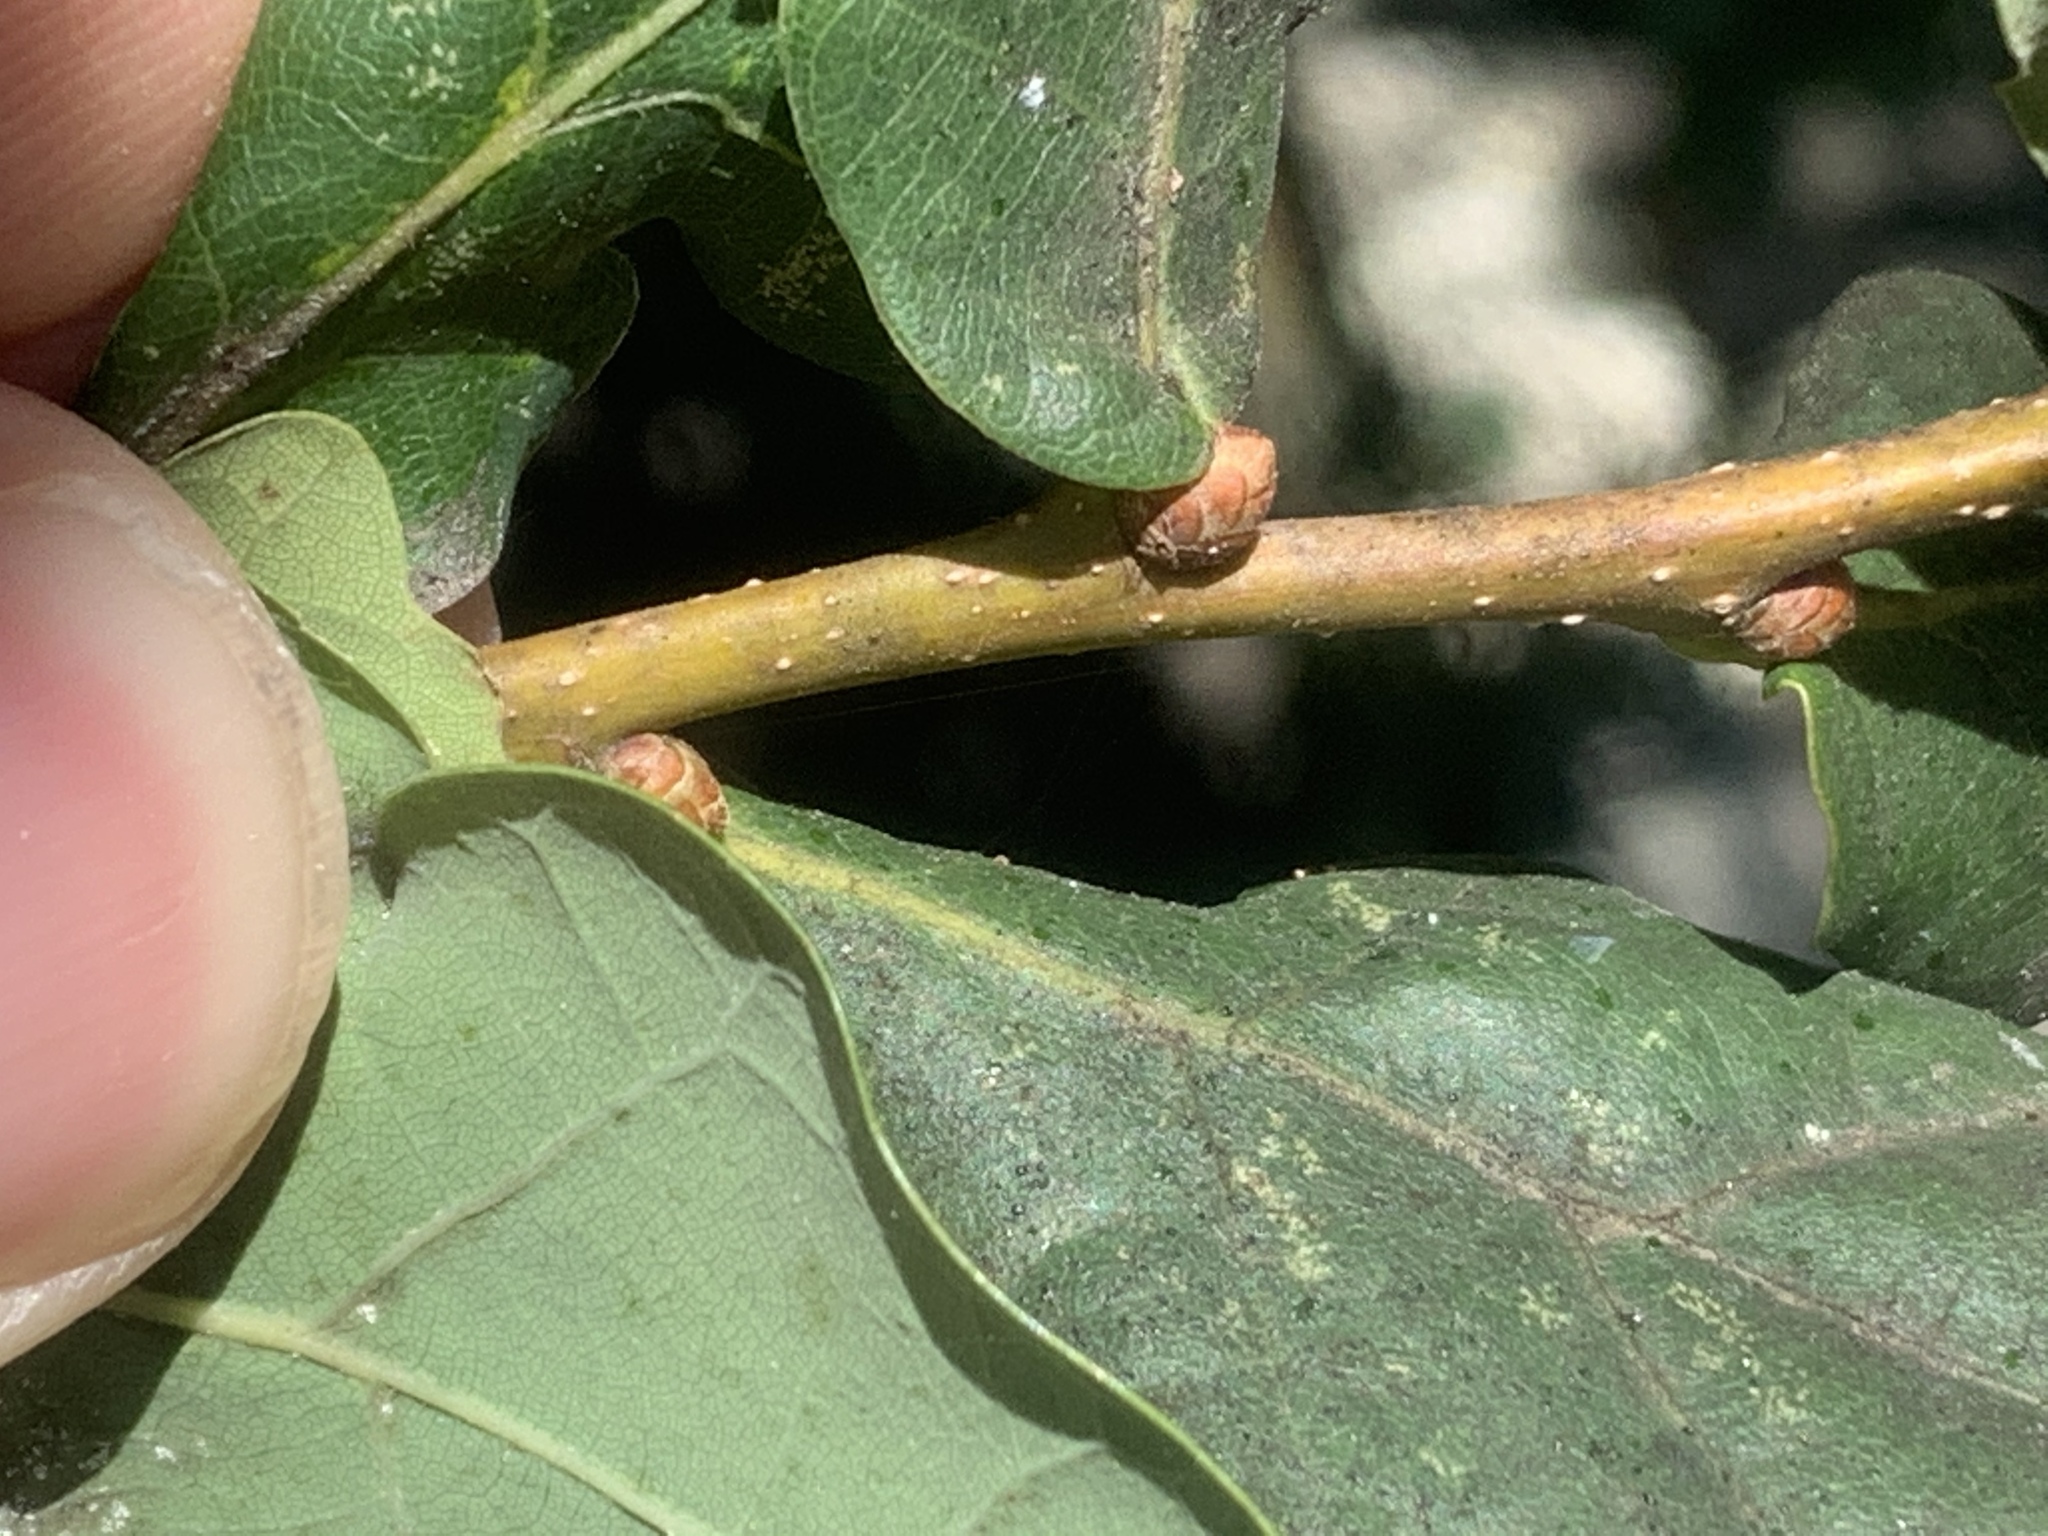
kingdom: Plantae
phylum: Tracheophyta
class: Magnoliopsida
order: Fagales
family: Fagaceae
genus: Quercus
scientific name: Quercus robur
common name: Pedunculate oak
